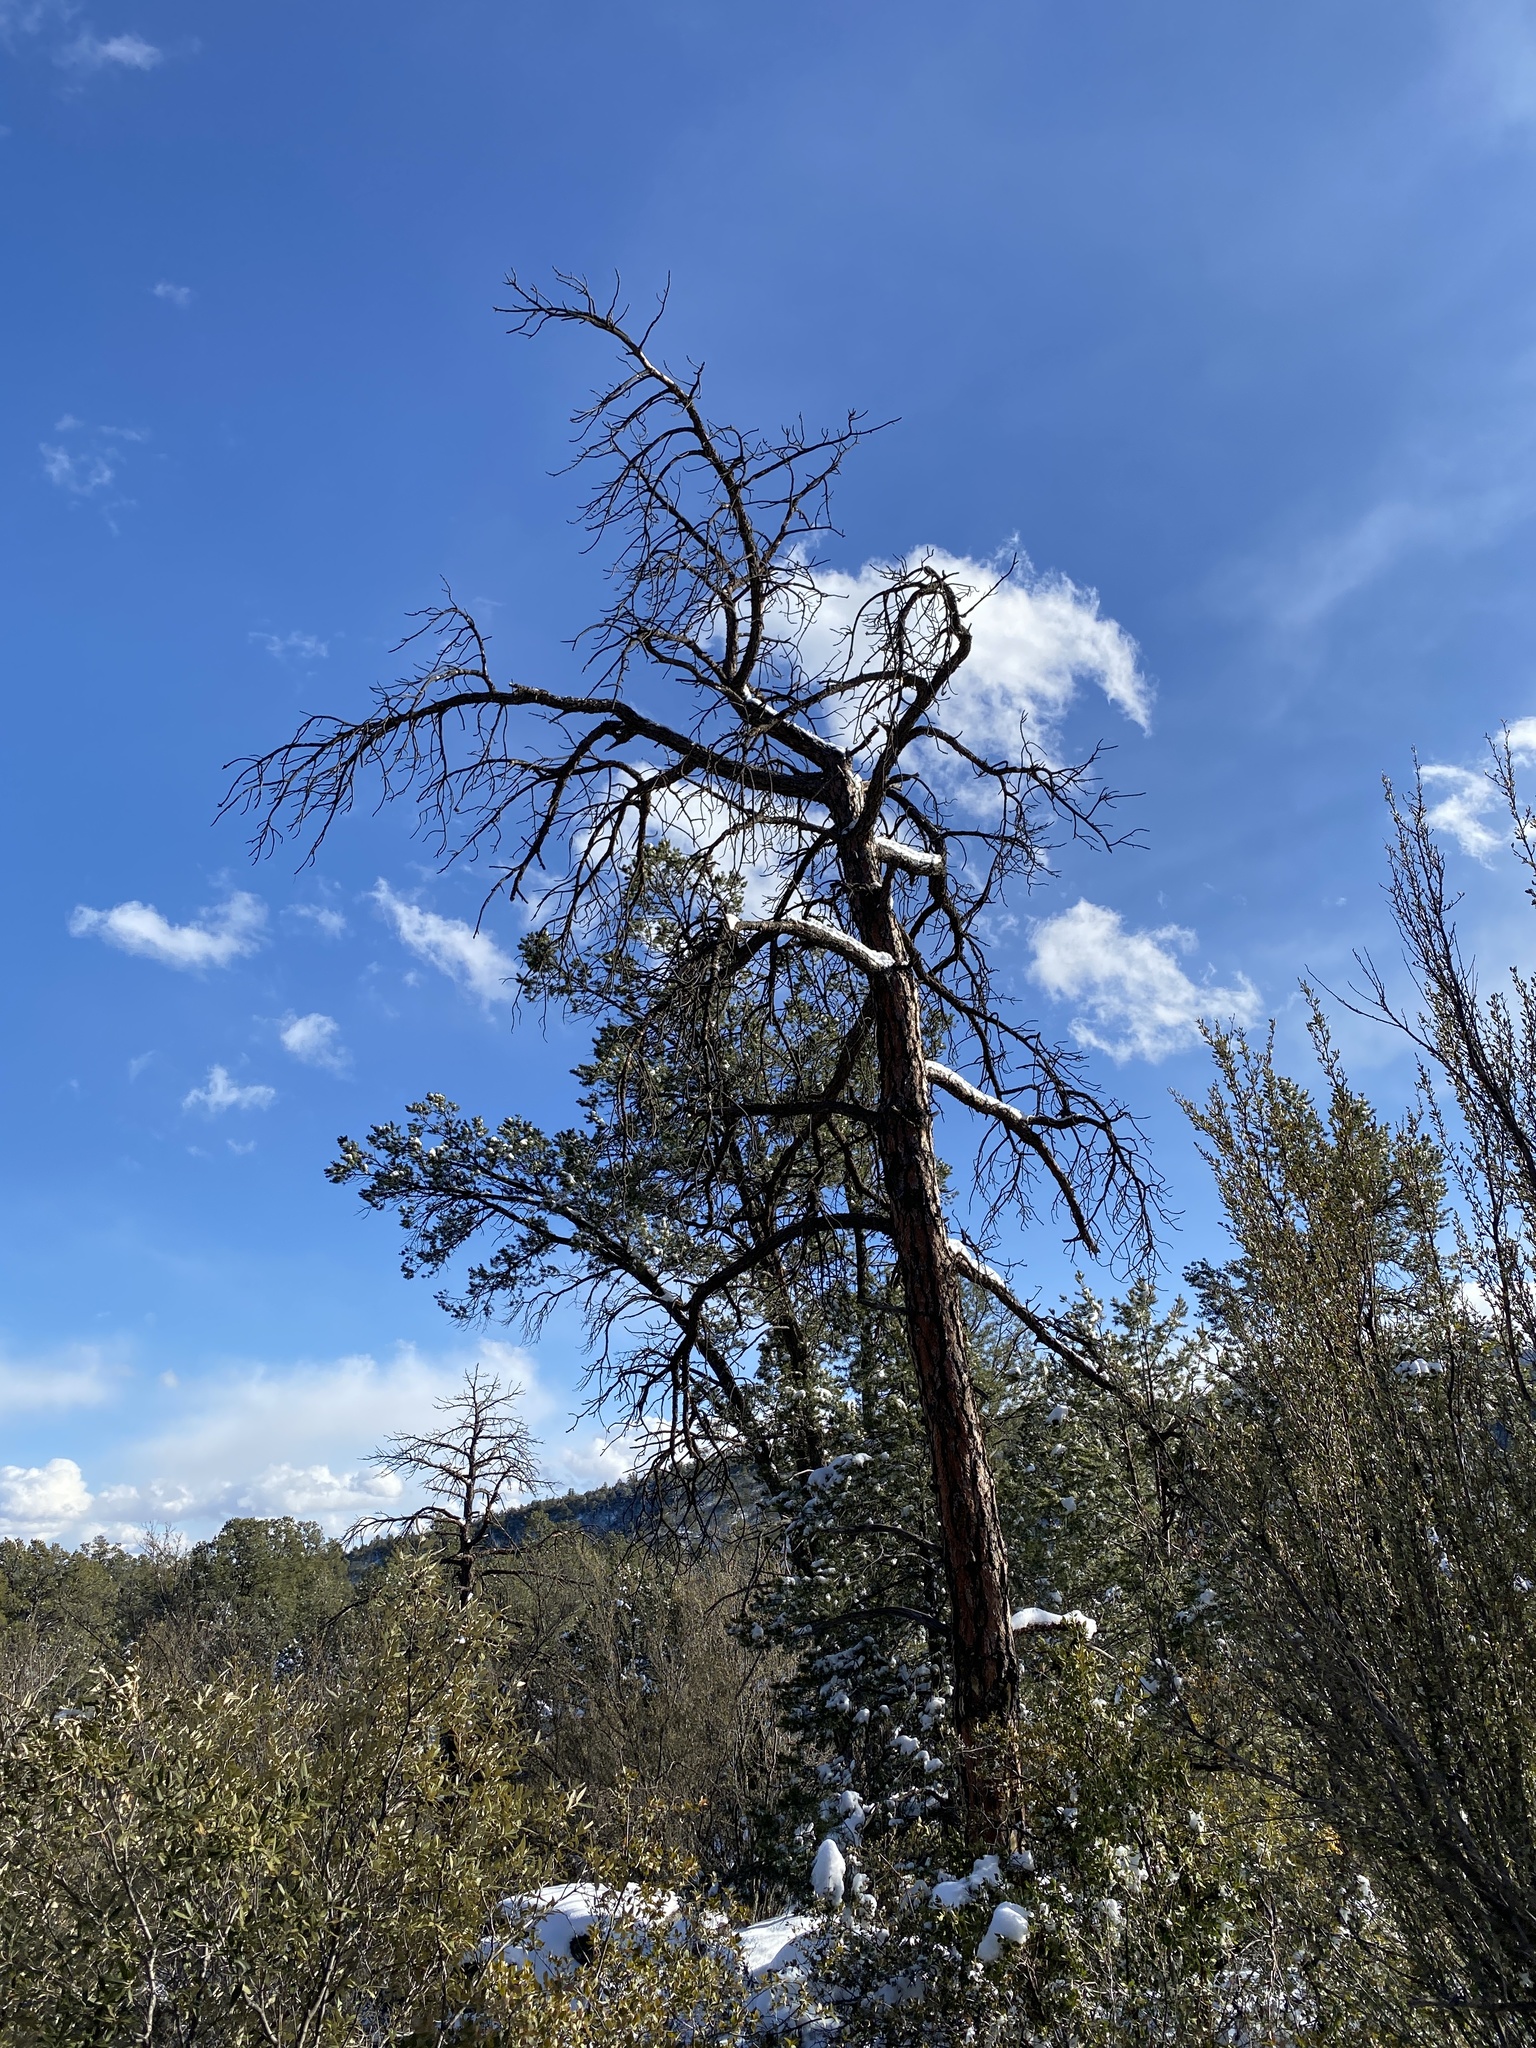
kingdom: Plantae
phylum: Tracheophyta
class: Pinopsida
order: Pinales
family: Pinaceae
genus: Pinus
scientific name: Pinus ponderosa
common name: Western yellow-pine
